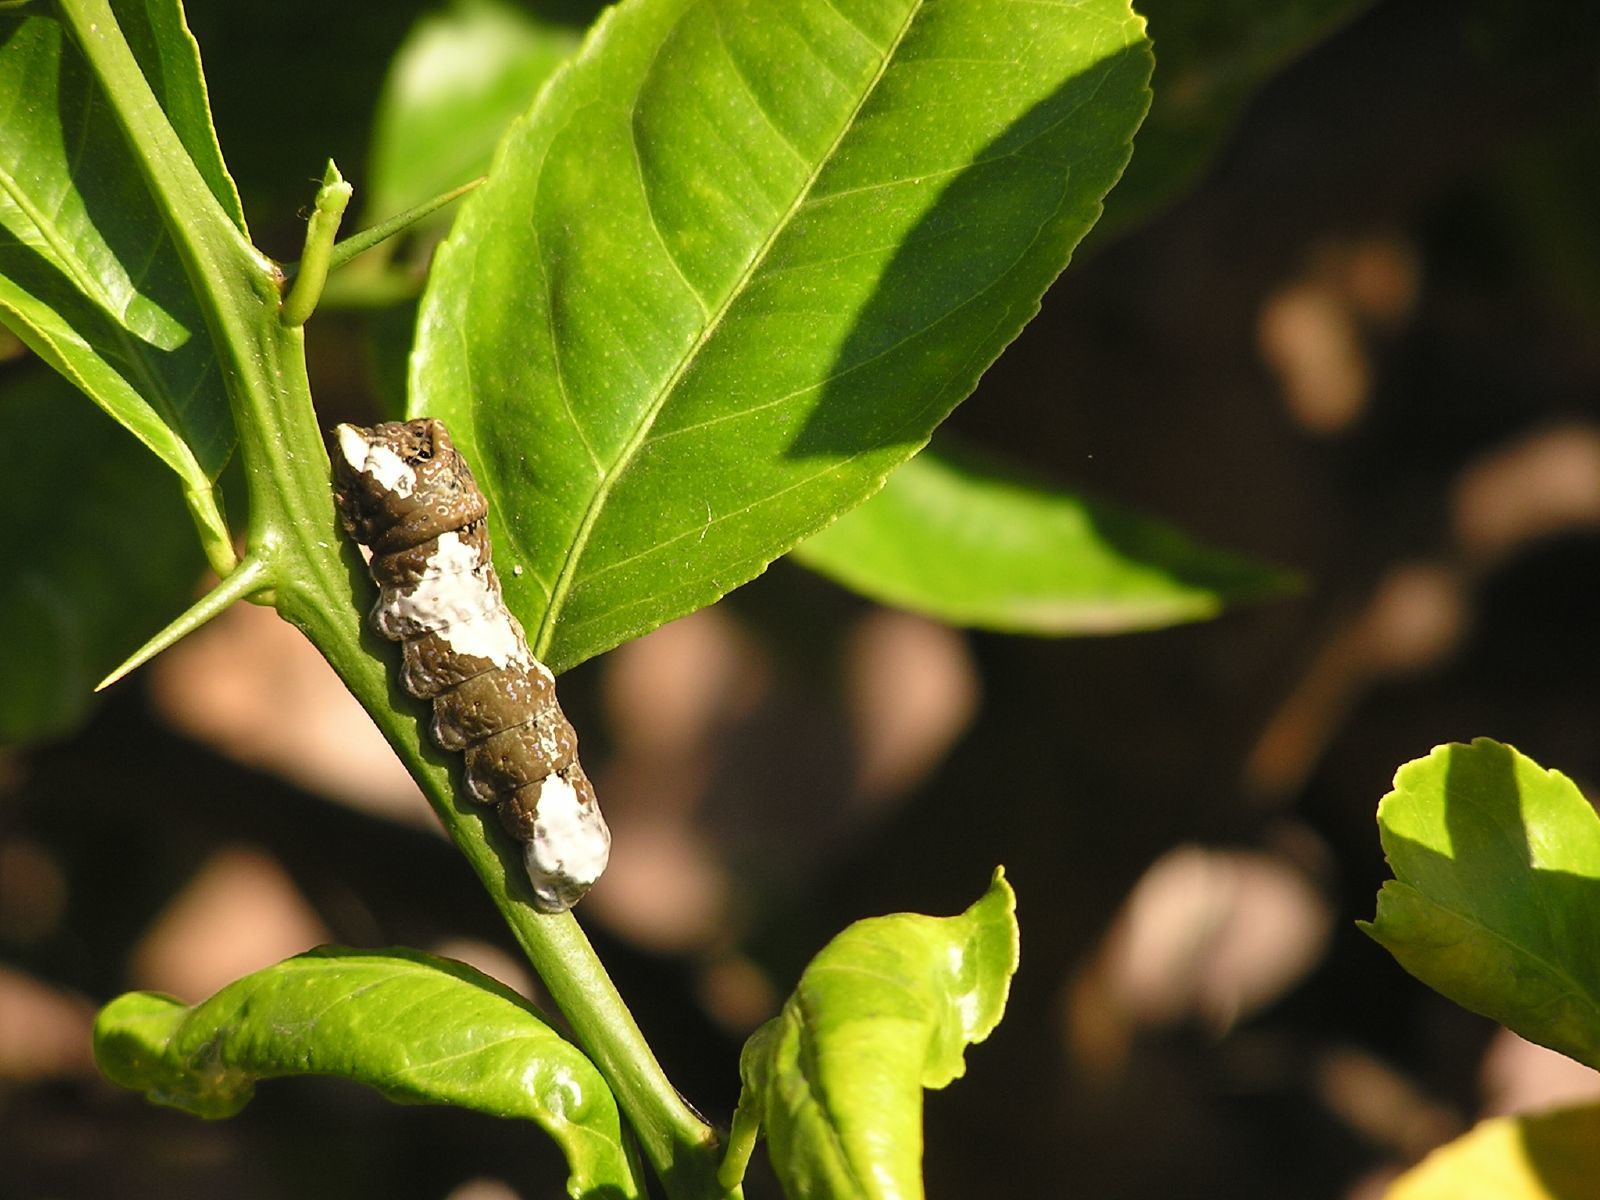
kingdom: Animalia
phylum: Arthropoda
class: Insecta
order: Lepidoptera
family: Papilionidae
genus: Papilio
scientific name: Papilio rumiko
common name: Western giant swallowtail
